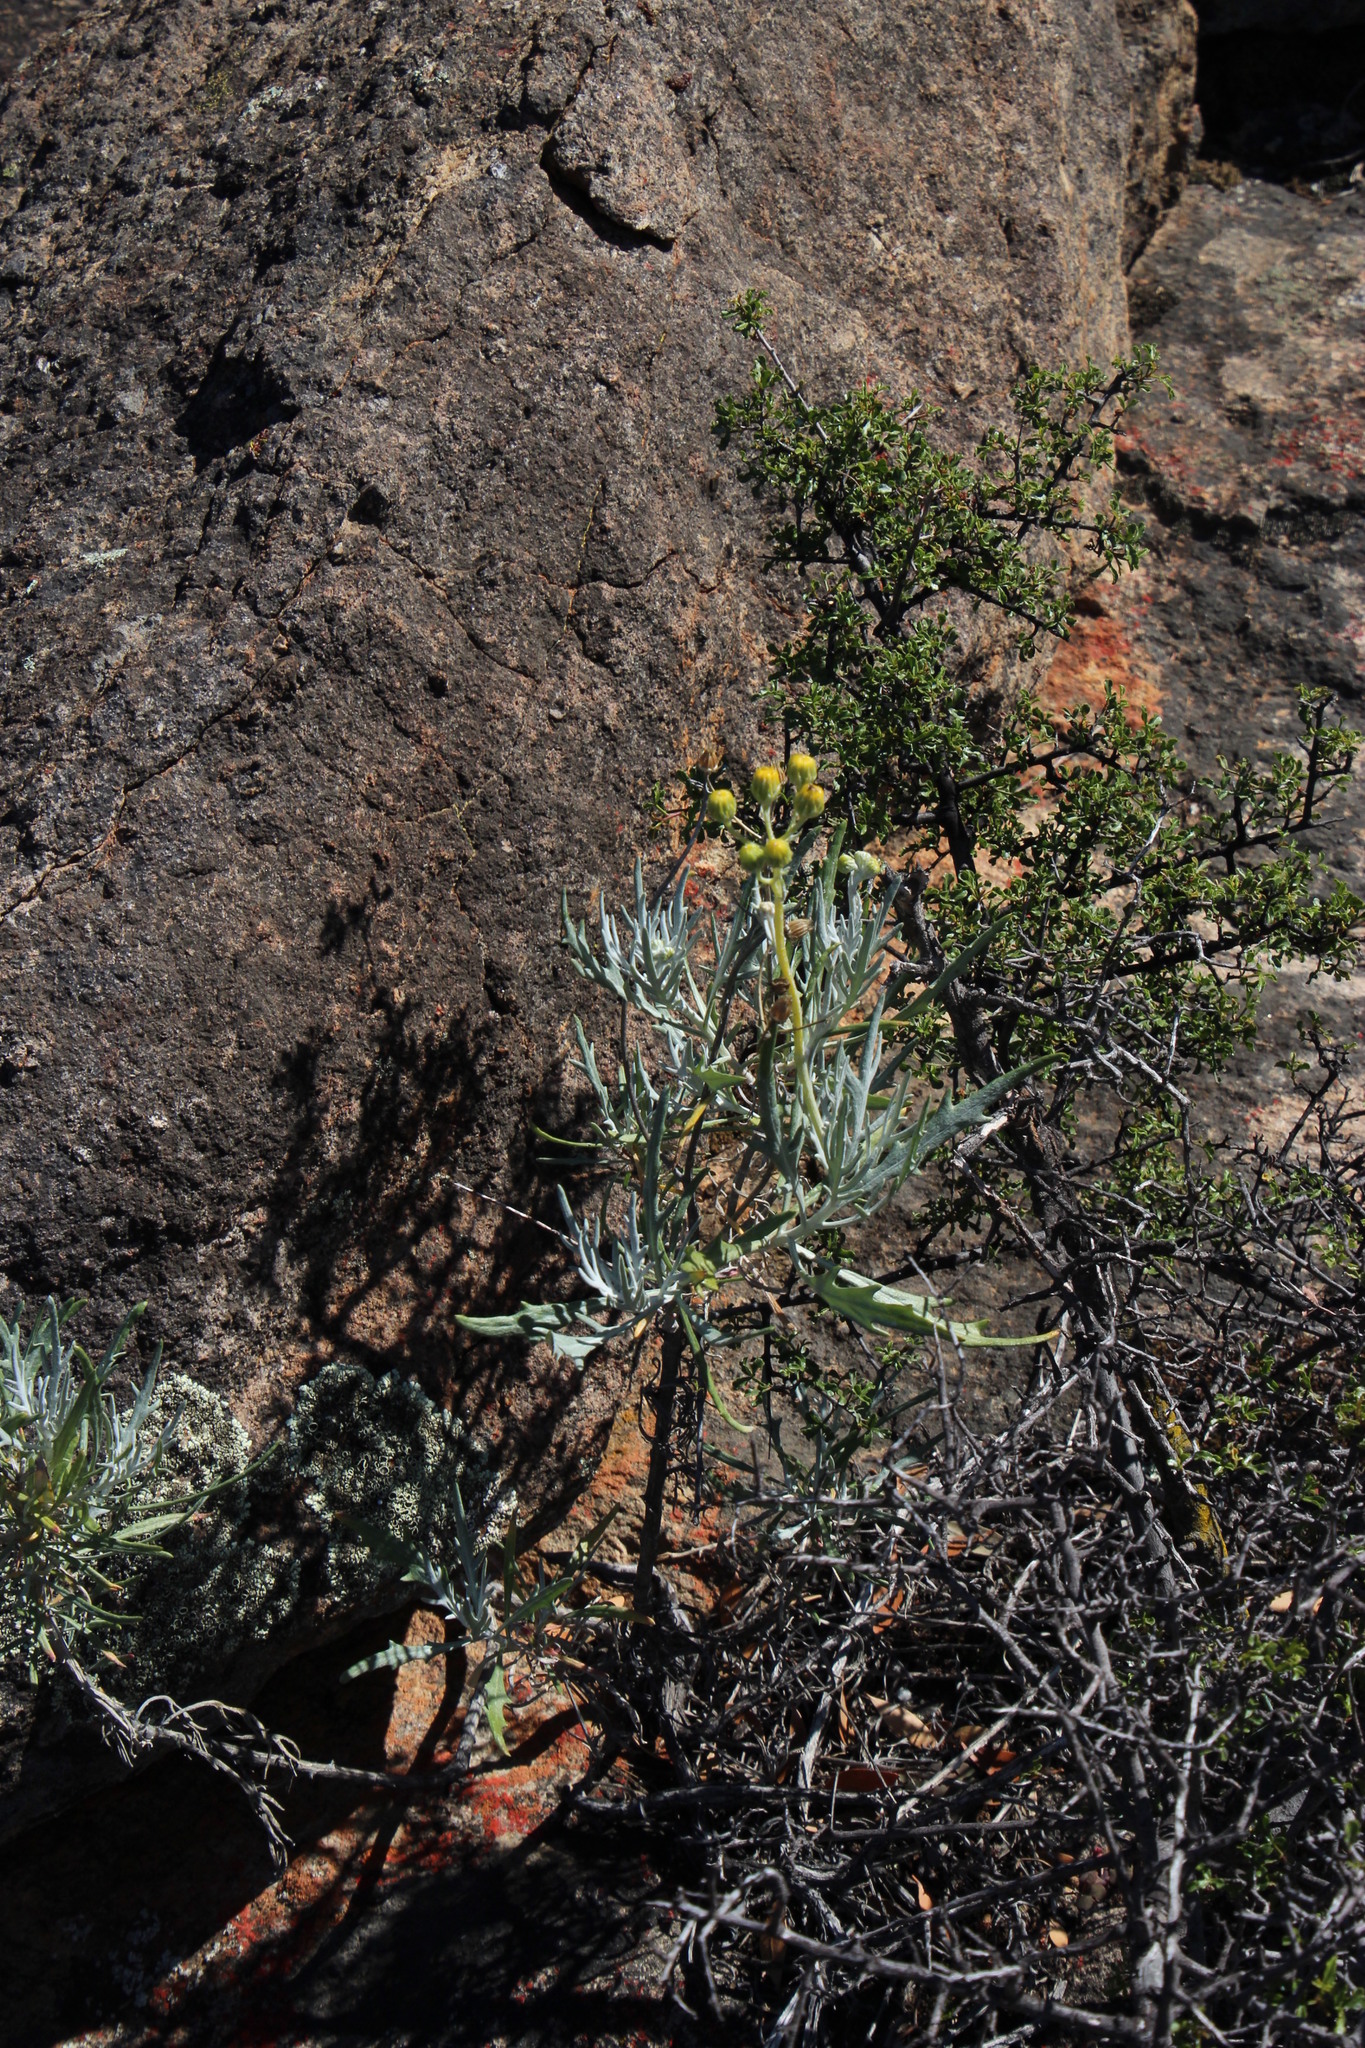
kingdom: Plantae
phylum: Tracheophyta
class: Magnoliopsida
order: Asterales
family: Asteraceae
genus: Senecio
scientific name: Senecio cinerascens
